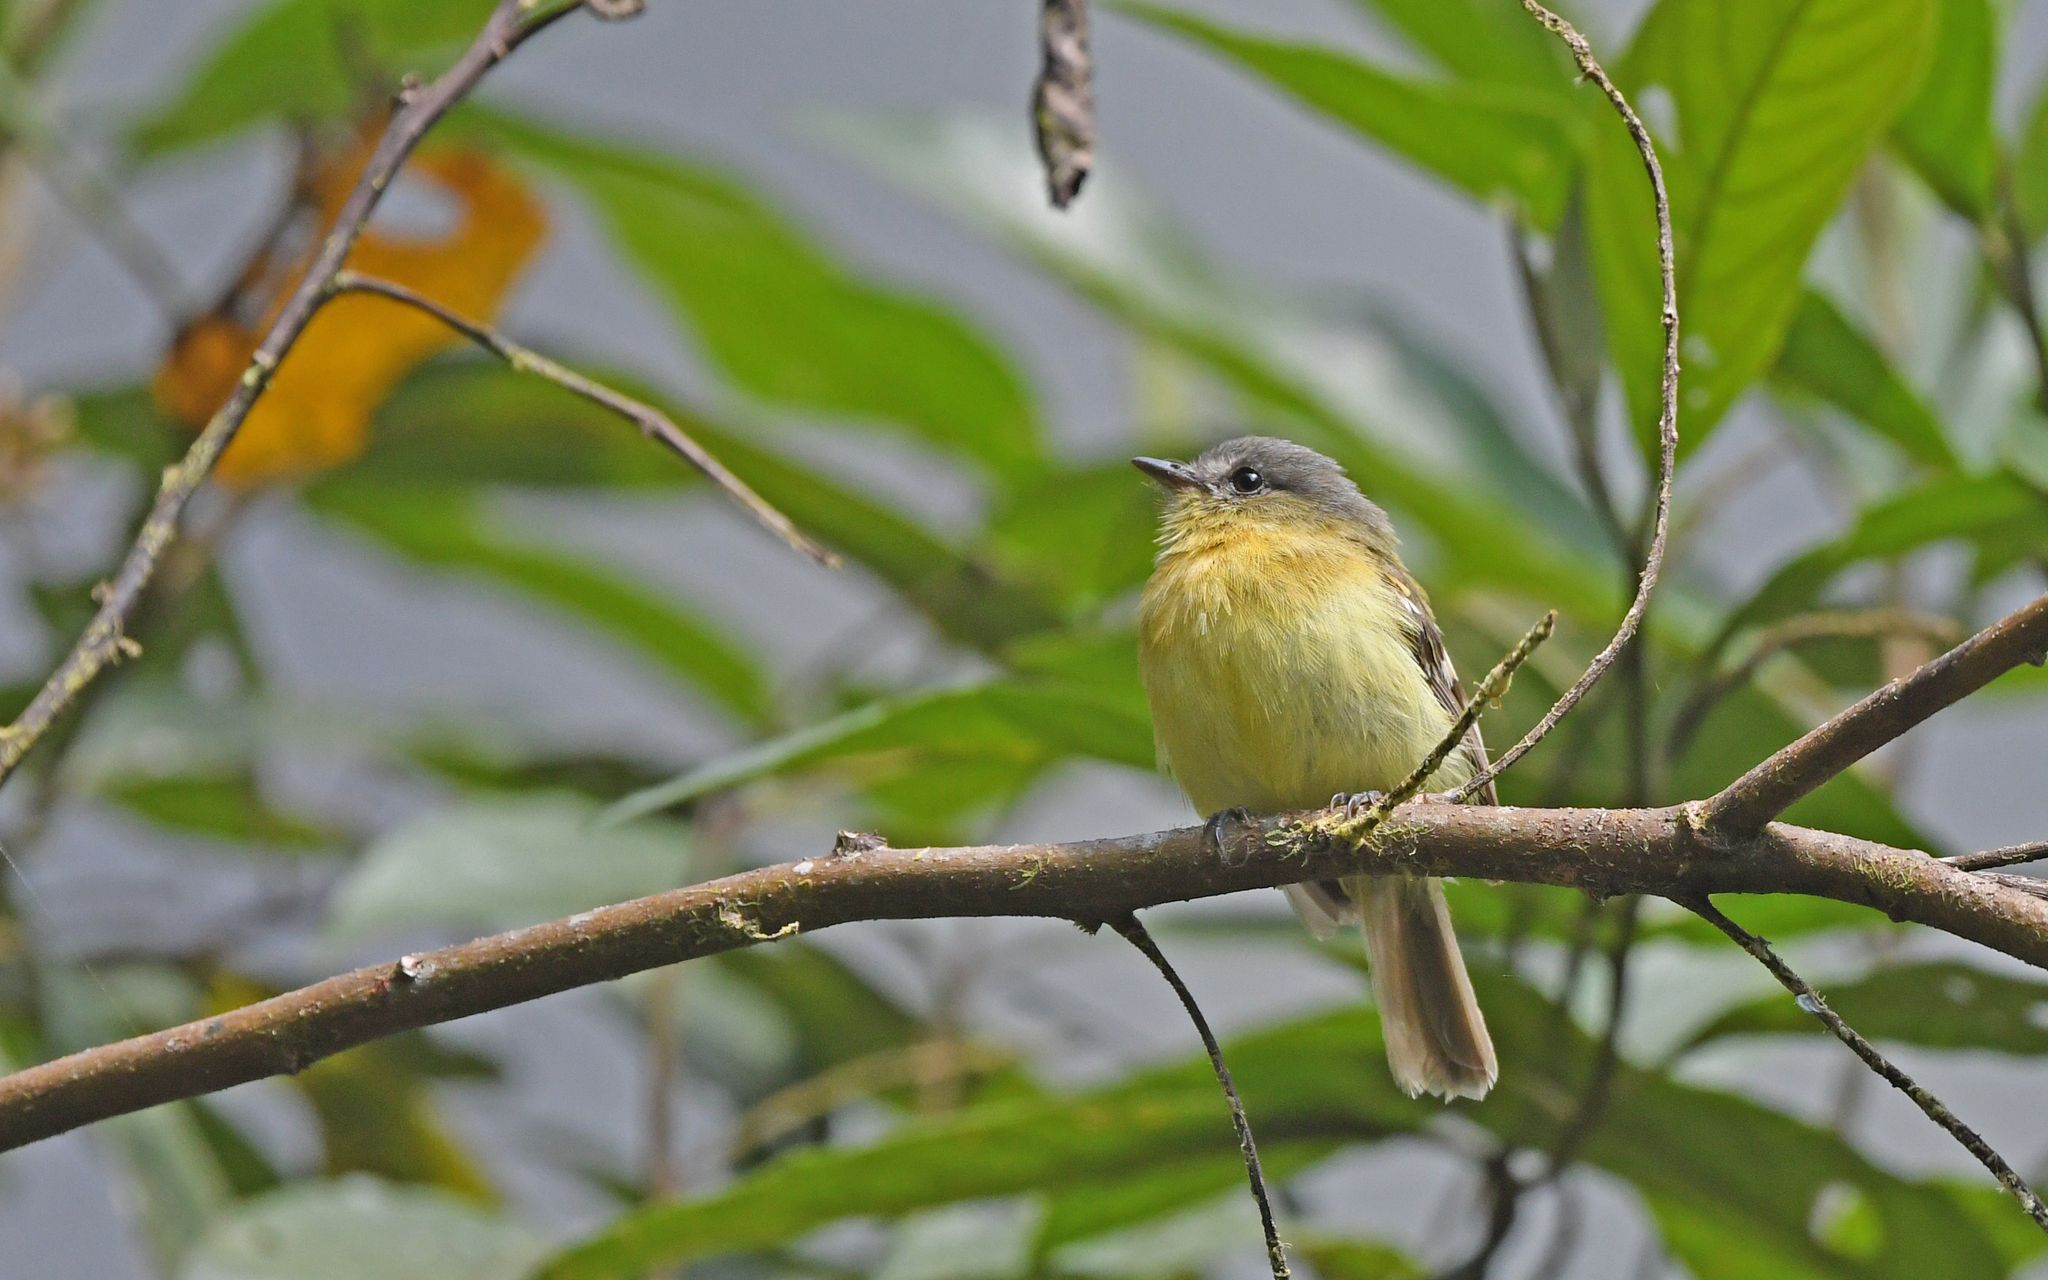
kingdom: Animalia
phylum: Chordata
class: Aves
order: Passeriformes
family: Tyrannidae
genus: Myiophobus
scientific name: Myiophobus pulcher
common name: Handsome flycatcher
